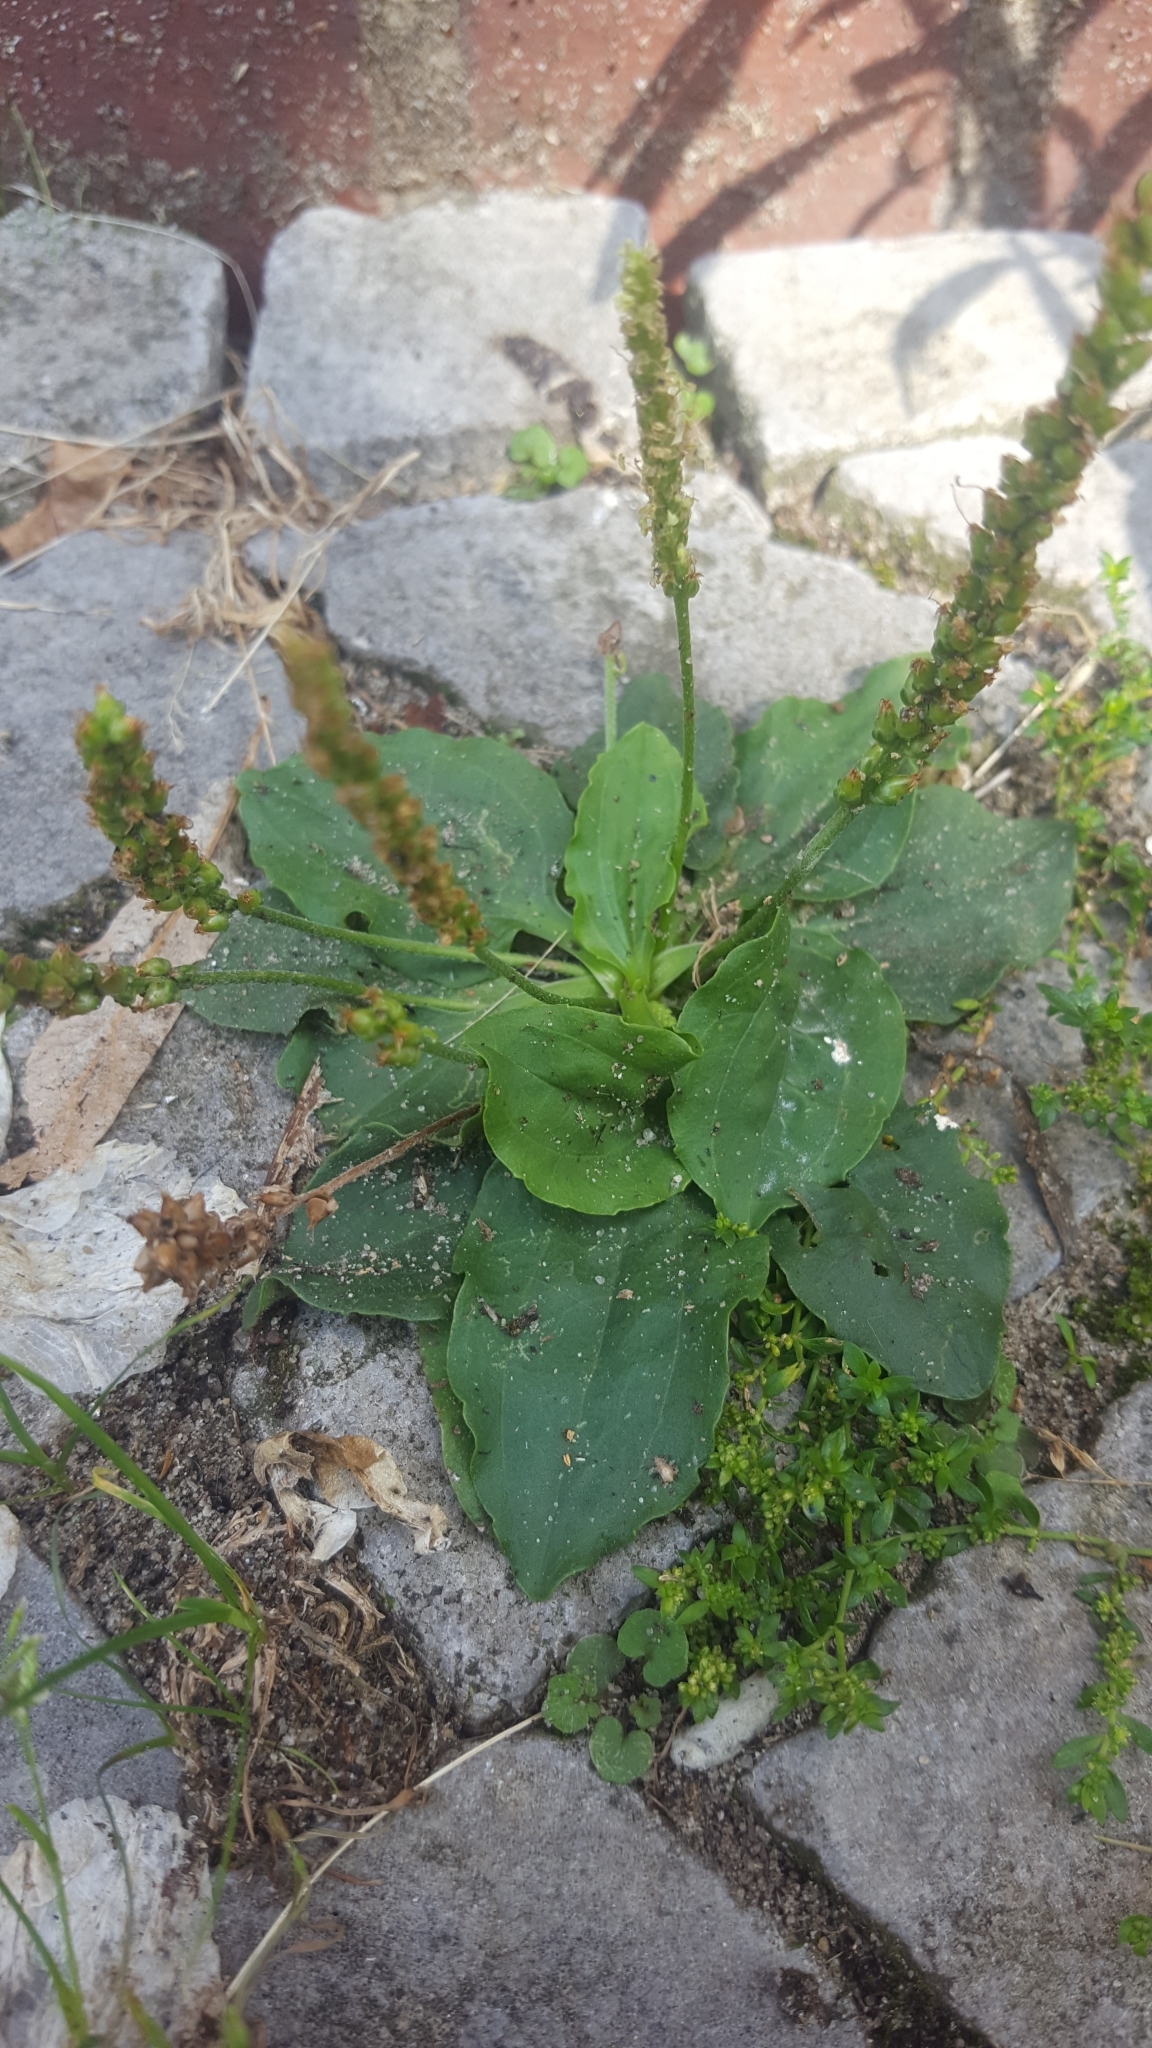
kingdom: Plantae
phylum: Tracheophyta
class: Magnoliopsida
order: Lamiales
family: Plantaginaceae
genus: Plantago
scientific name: Plantago major
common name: Common plantain
